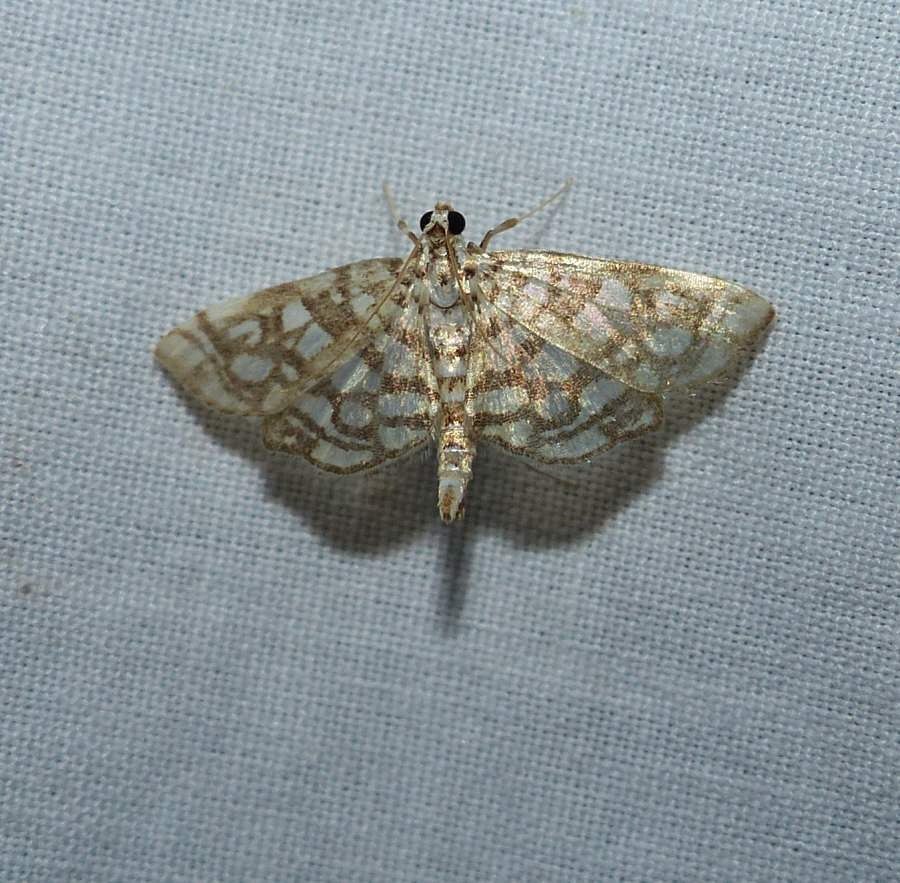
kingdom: Animalia
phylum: Arthropoda
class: Insecta
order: Lepidoptera
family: Crambidae
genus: Lygropia
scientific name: Lygropia rivulalis
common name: Bog lygropia moth
